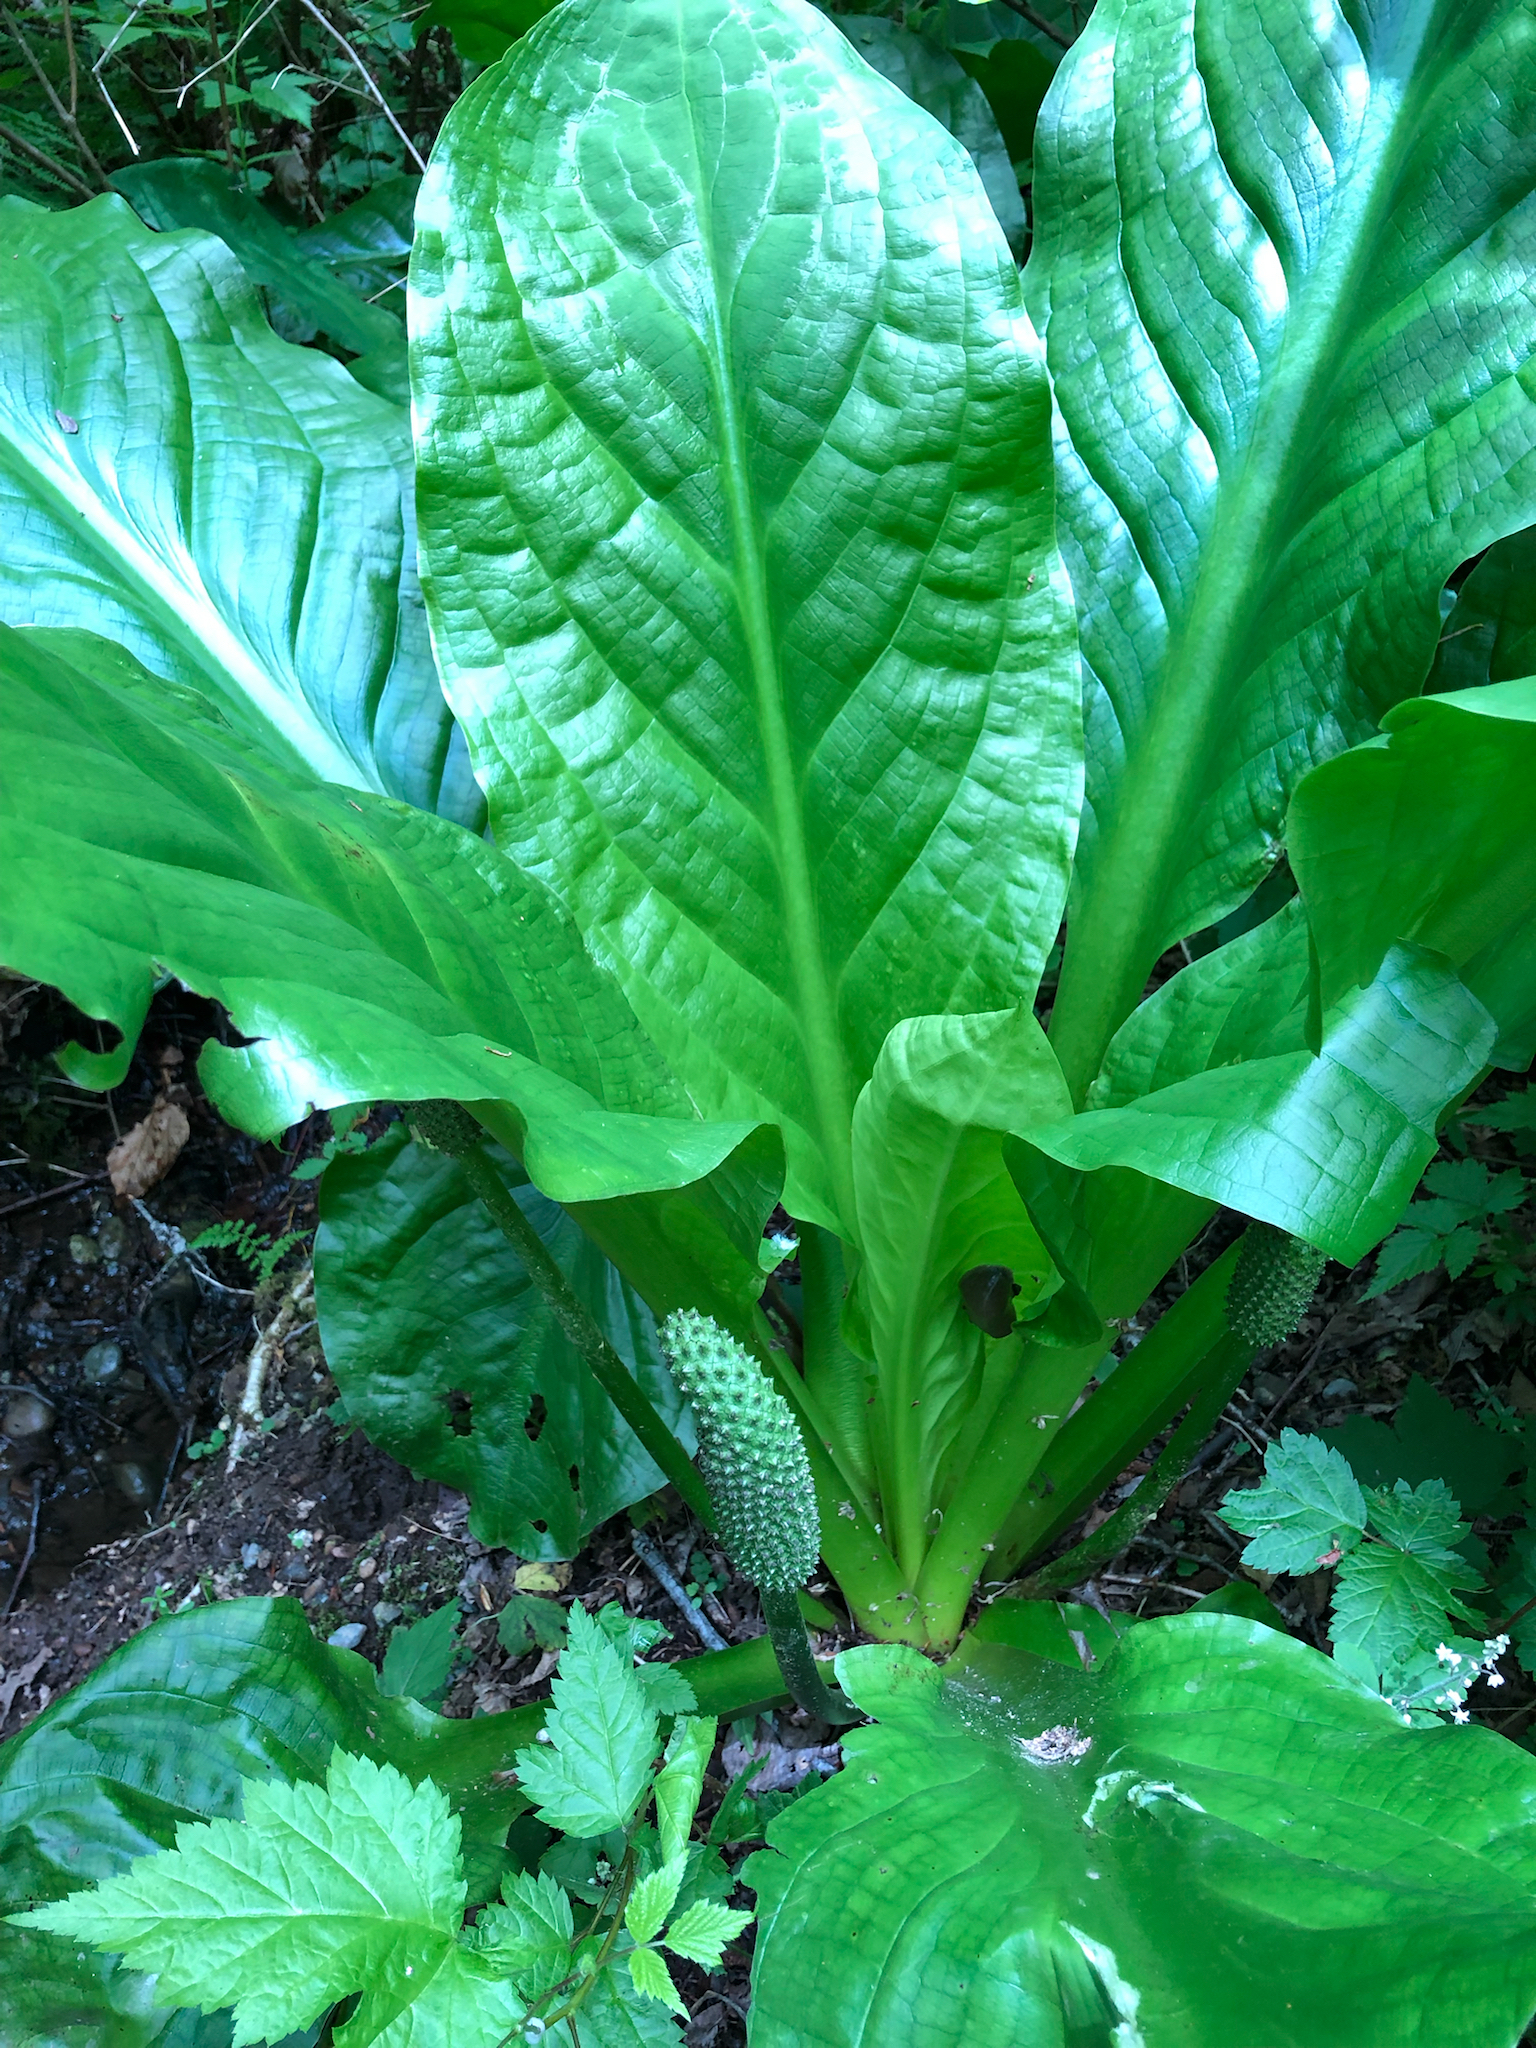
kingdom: Plantae
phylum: Tracheophyta
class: Liliopsida
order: Alismatales
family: Araceae
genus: Lysichiton
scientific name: Lysichiton americanus
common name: American skunk cabbage
